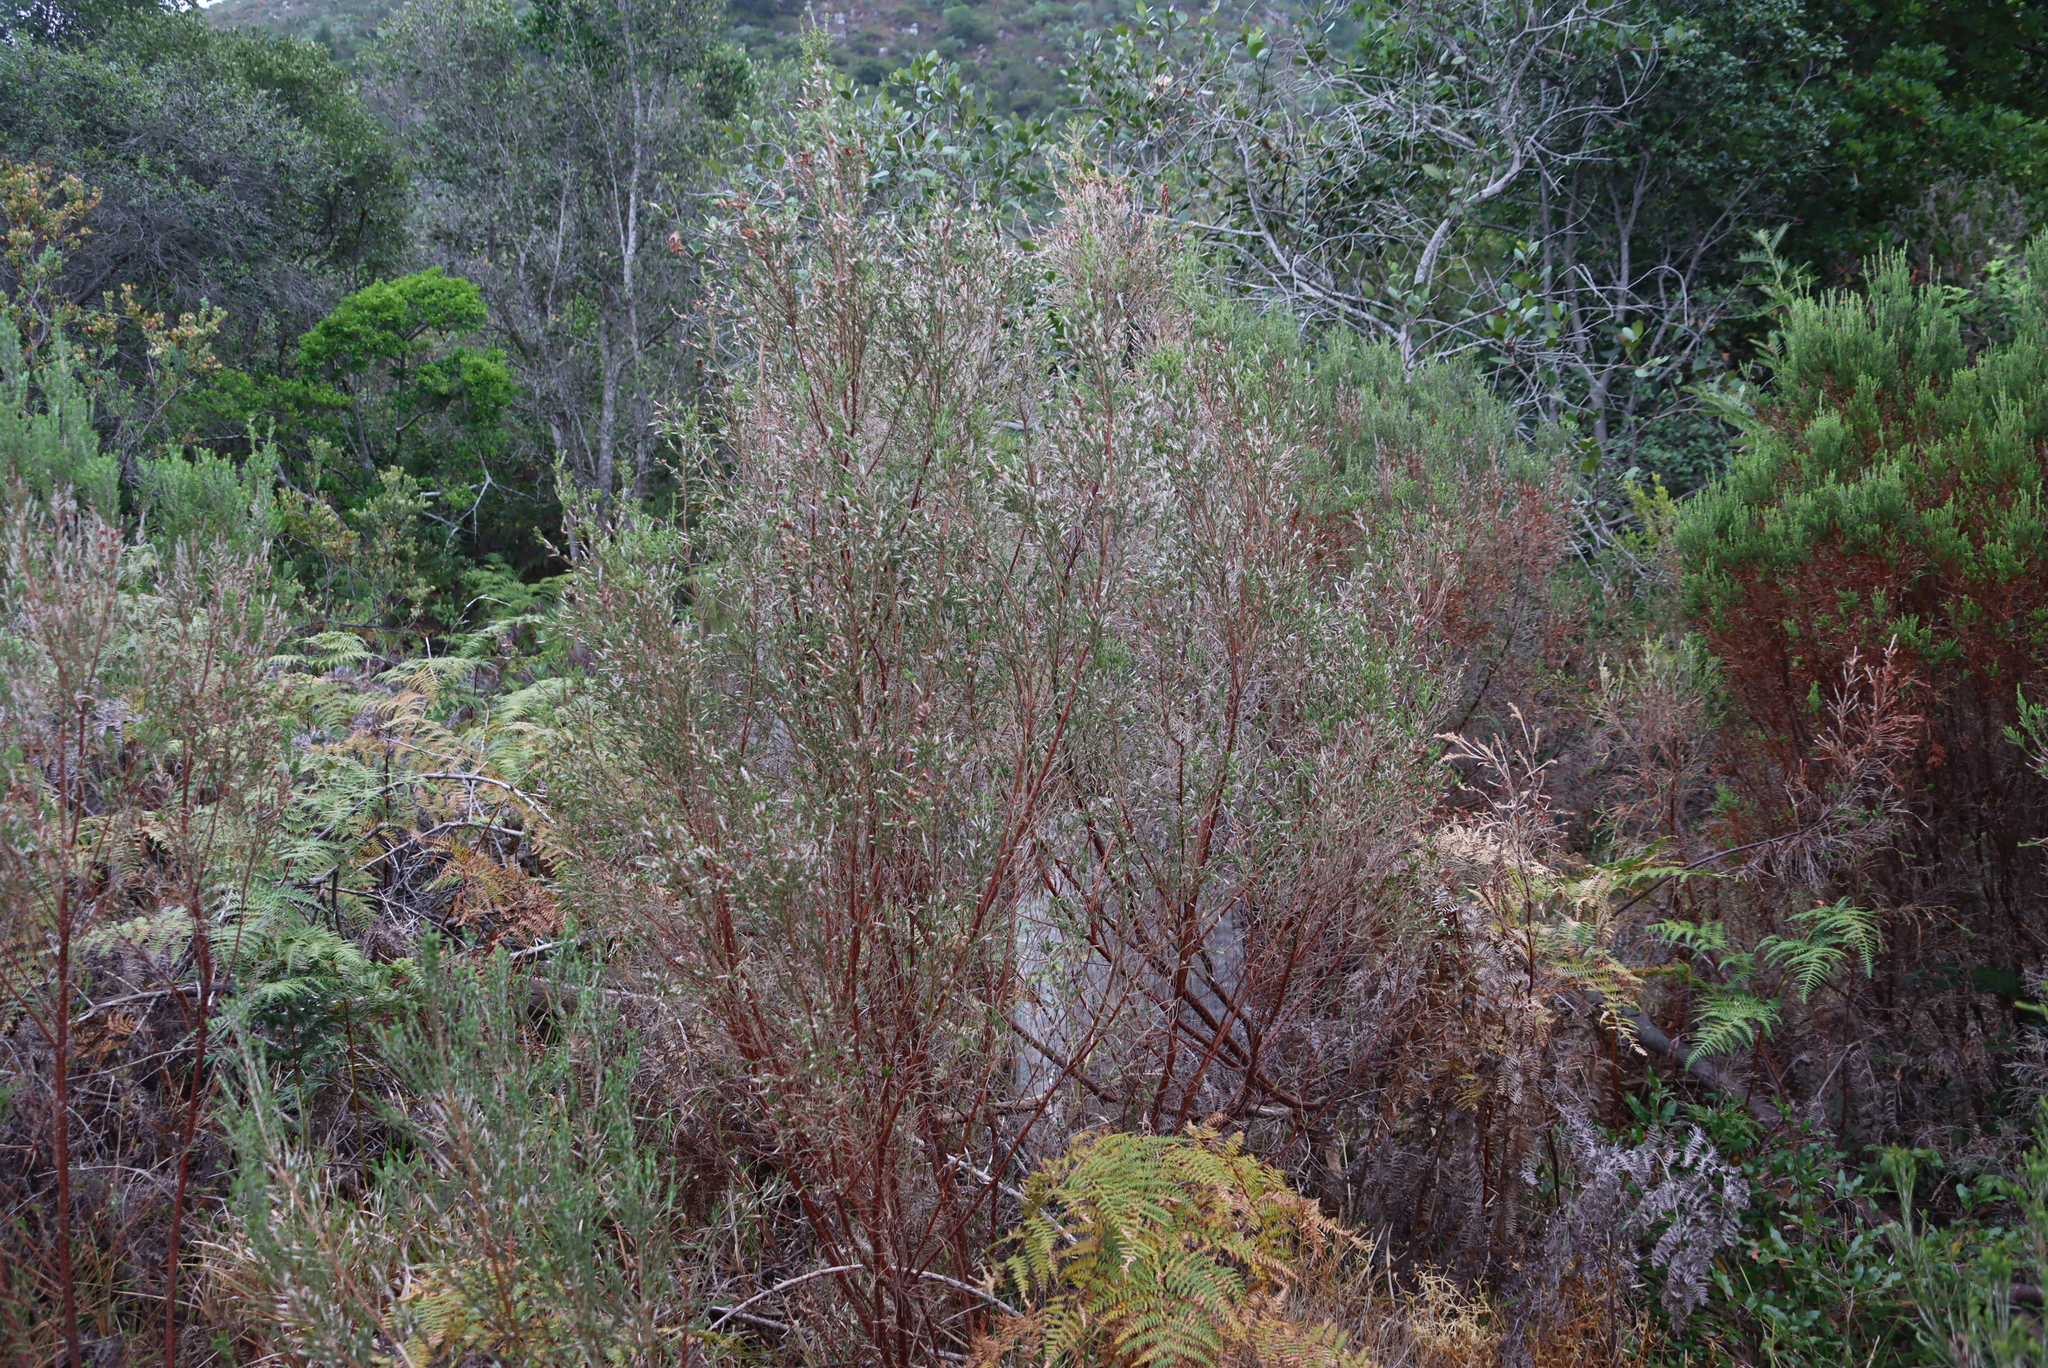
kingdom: Plantae
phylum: Tracheophyta
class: Magnoliopsida
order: Malvales
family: Thymelaeaceae
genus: Passerina
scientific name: Passerina corymbosa
